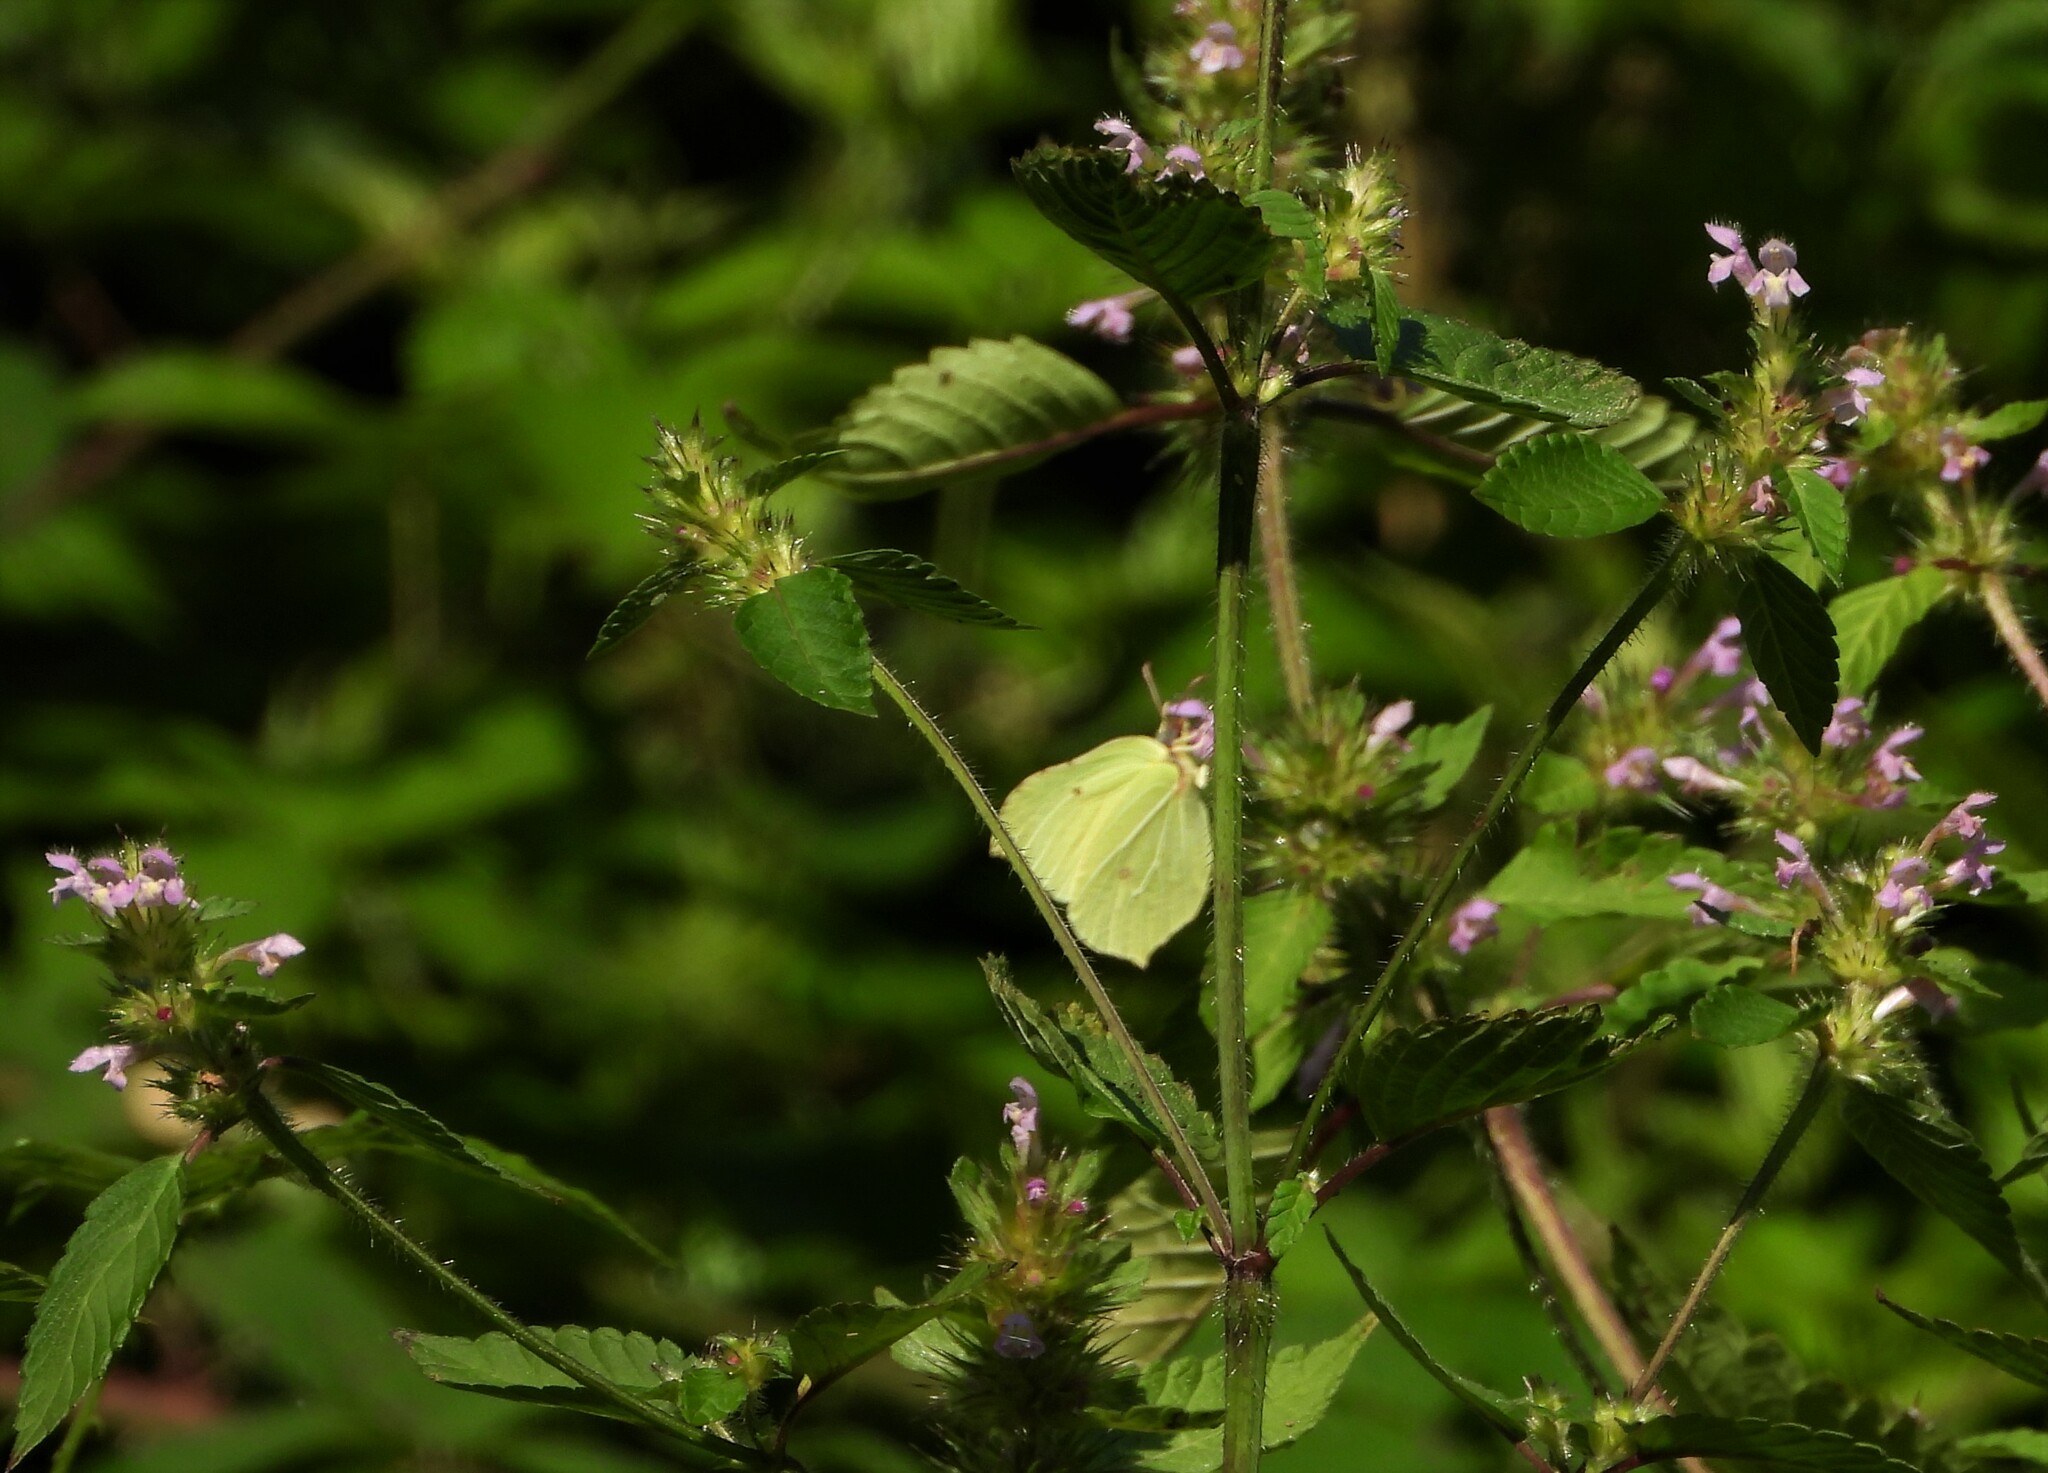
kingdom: Animalia
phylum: Arthropoda
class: Insecta
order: Lepidoptera
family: Pieridae
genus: Gonepteryx
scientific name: Gonepteryx rhamni
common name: Brimstone
